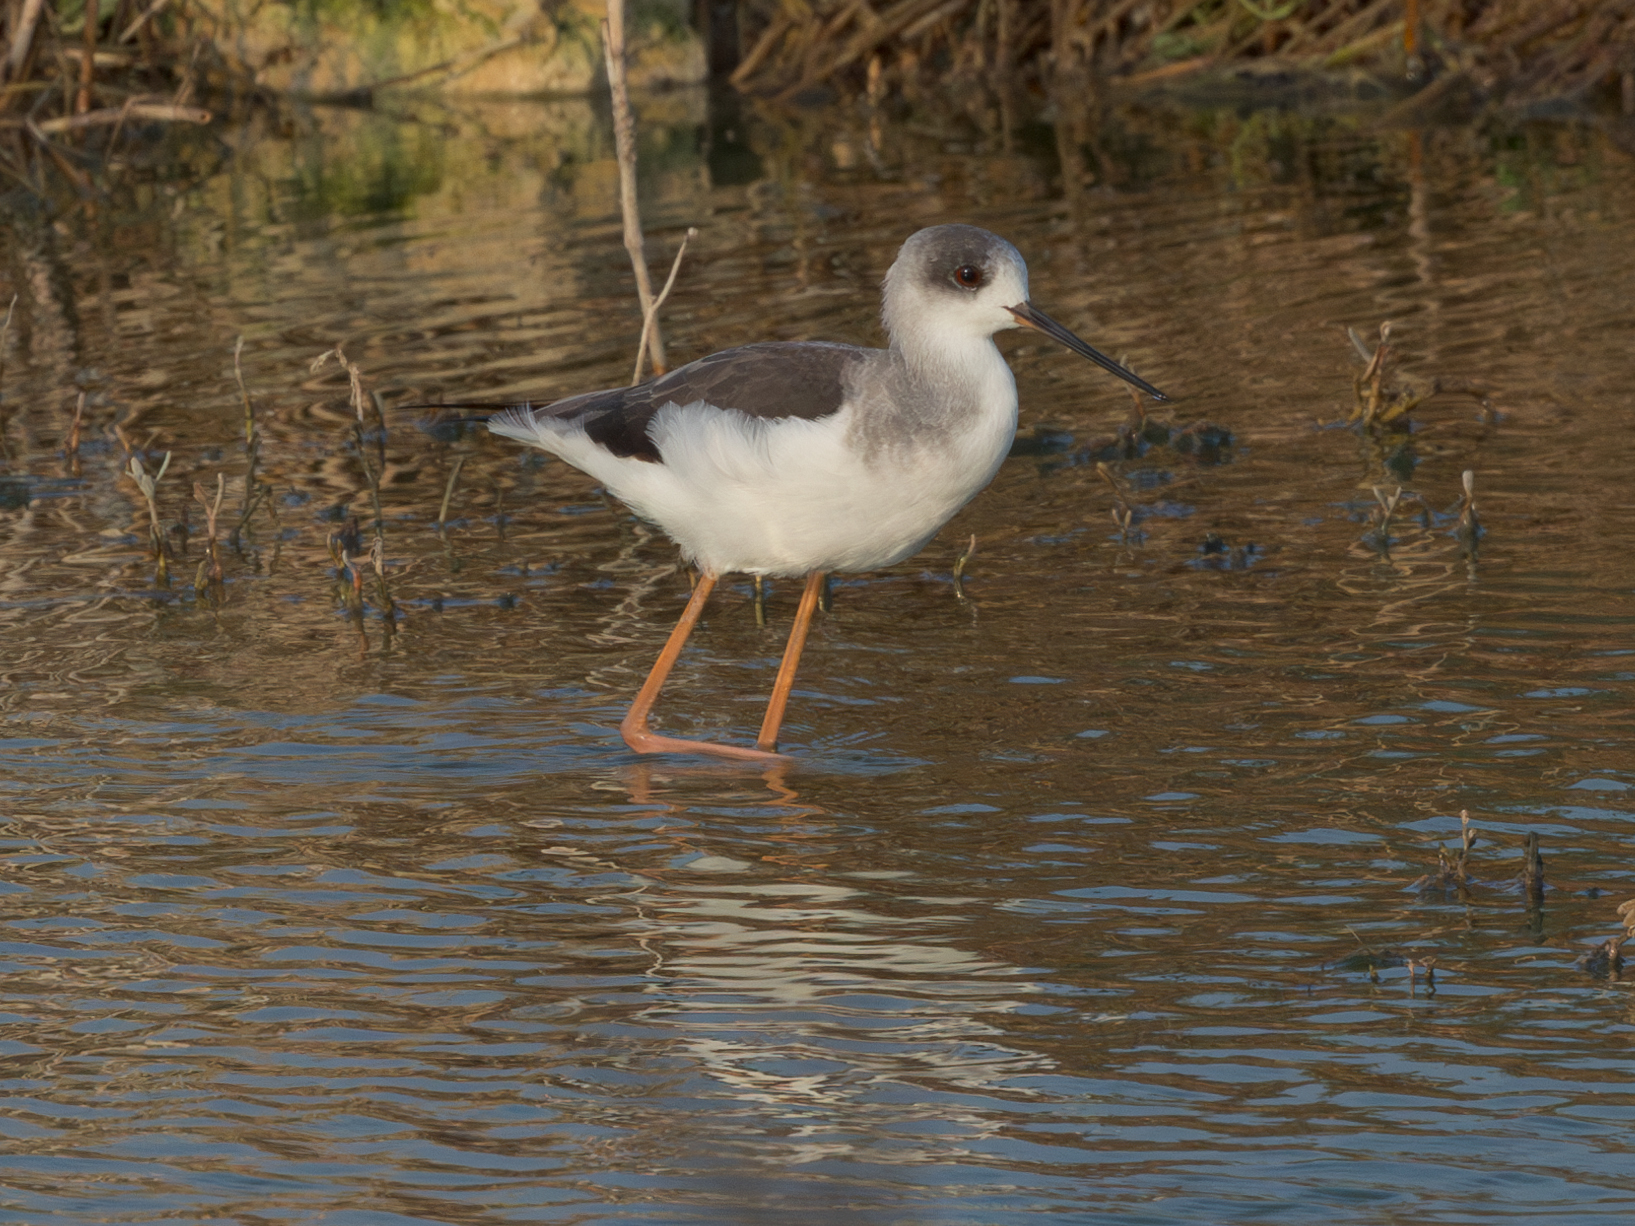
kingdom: Animalia
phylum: Chordata
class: Aves
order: Charadriiformes
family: Recurvirostridae
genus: Himantopus
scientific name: Himantopus himantopus
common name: Black-winged stilt
